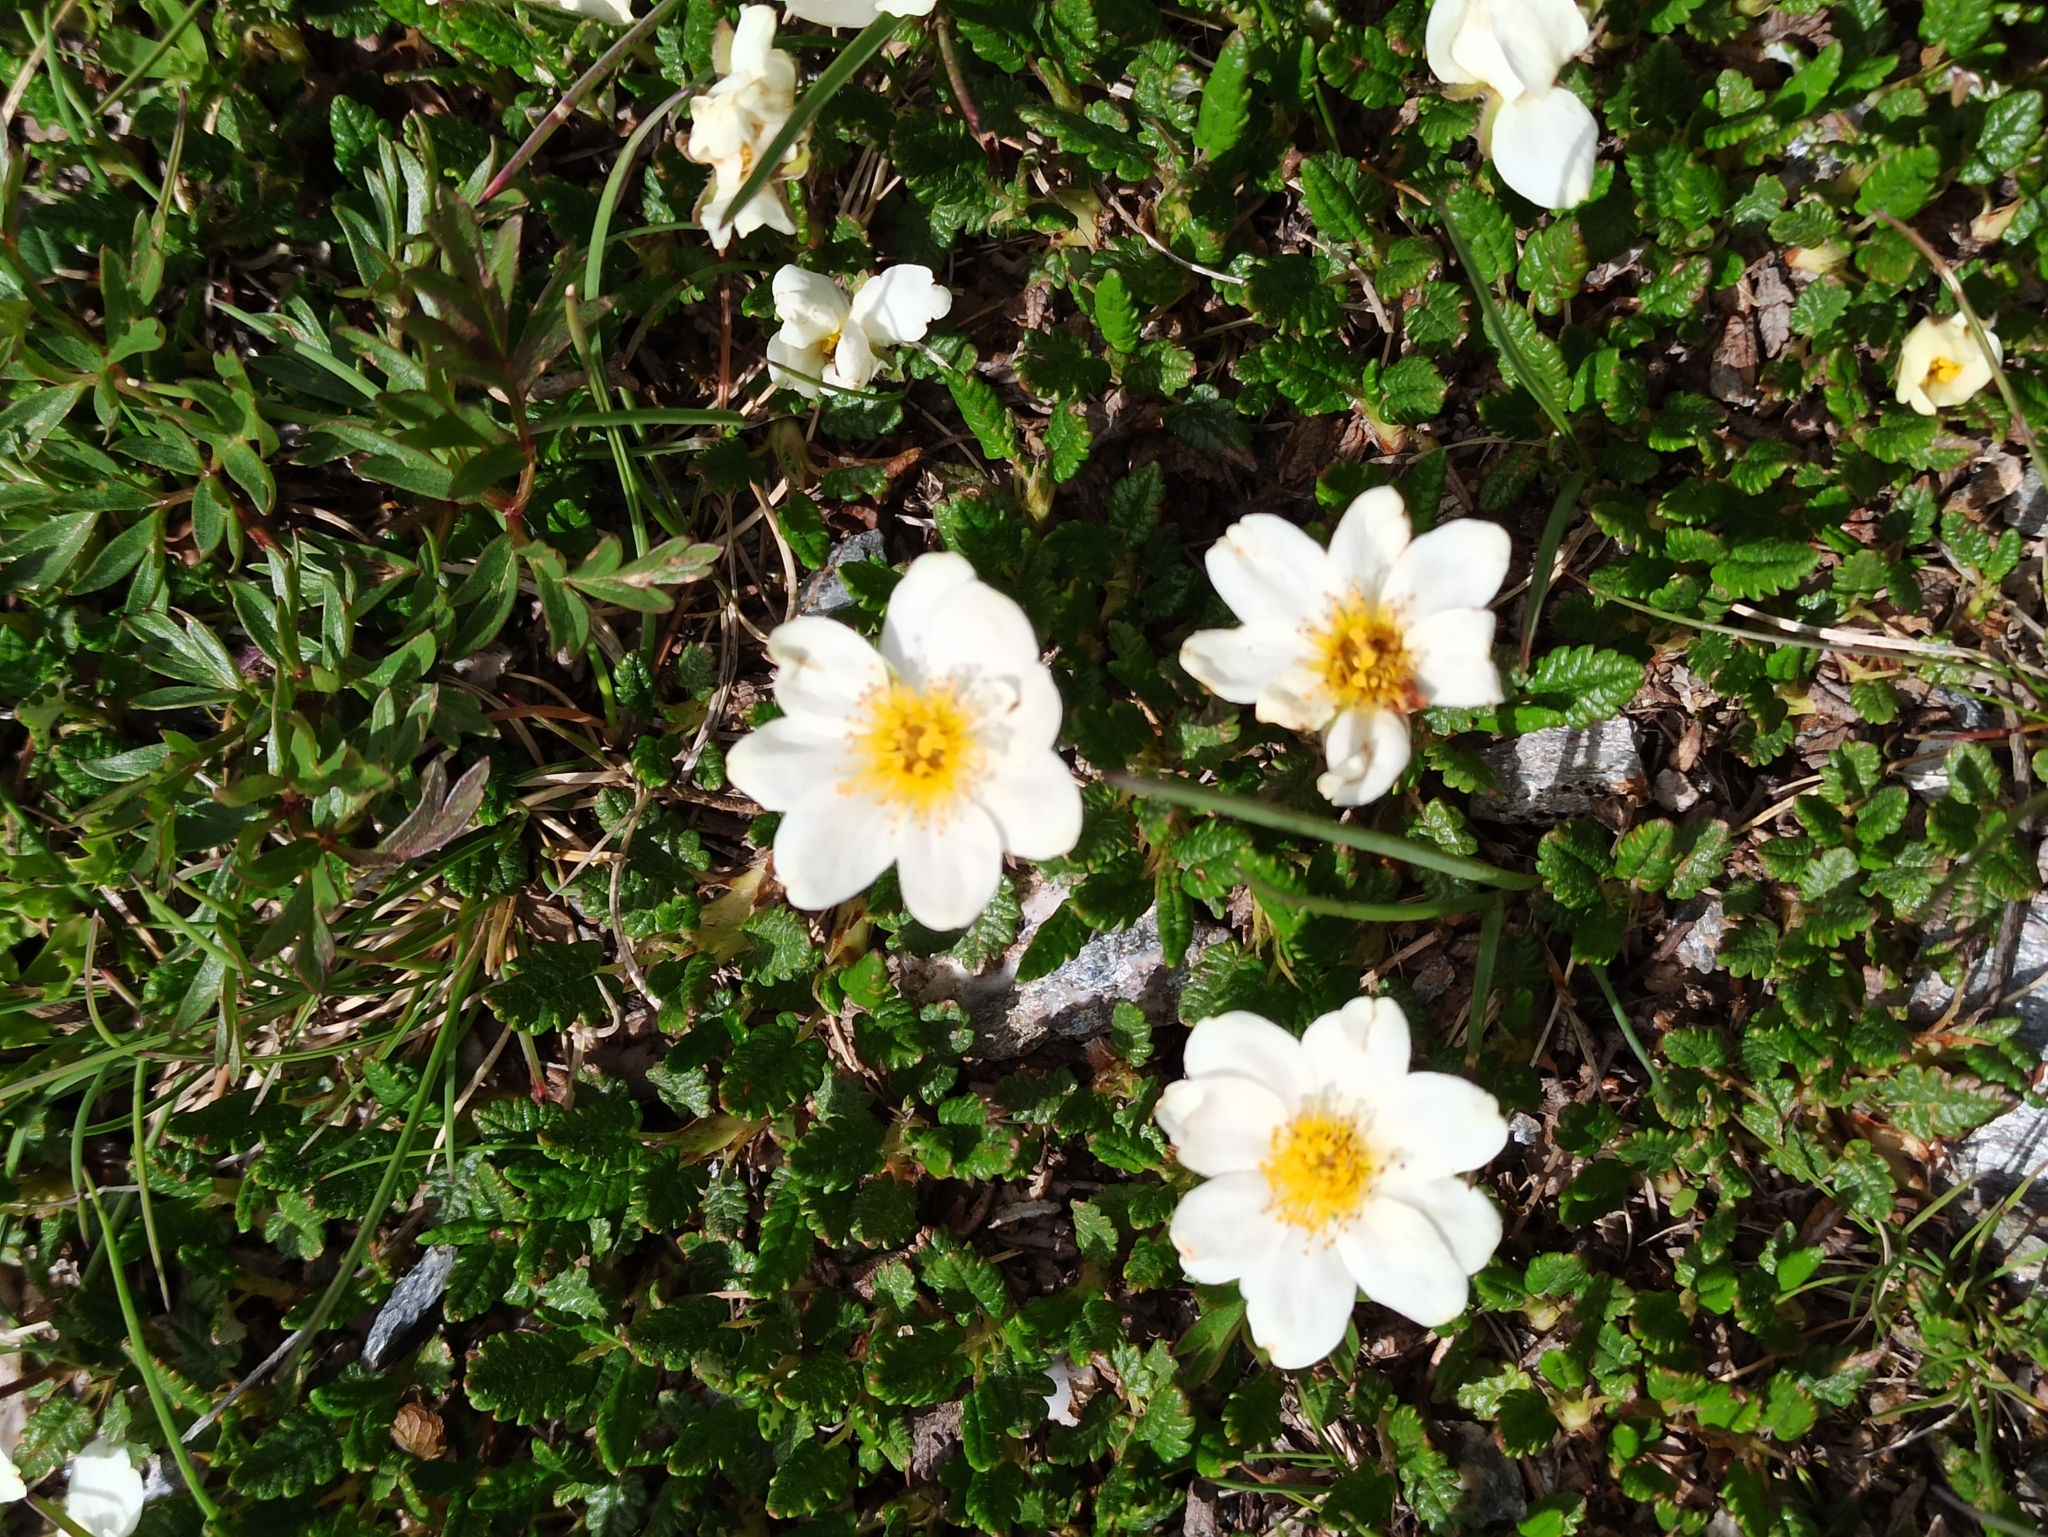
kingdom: Plantae
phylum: Tracheophyta
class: Magnoliopsida
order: Rosales
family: Rosaceae
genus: Dryas
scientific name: Dryas octopetala
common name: Eight-petal mountain-avens
